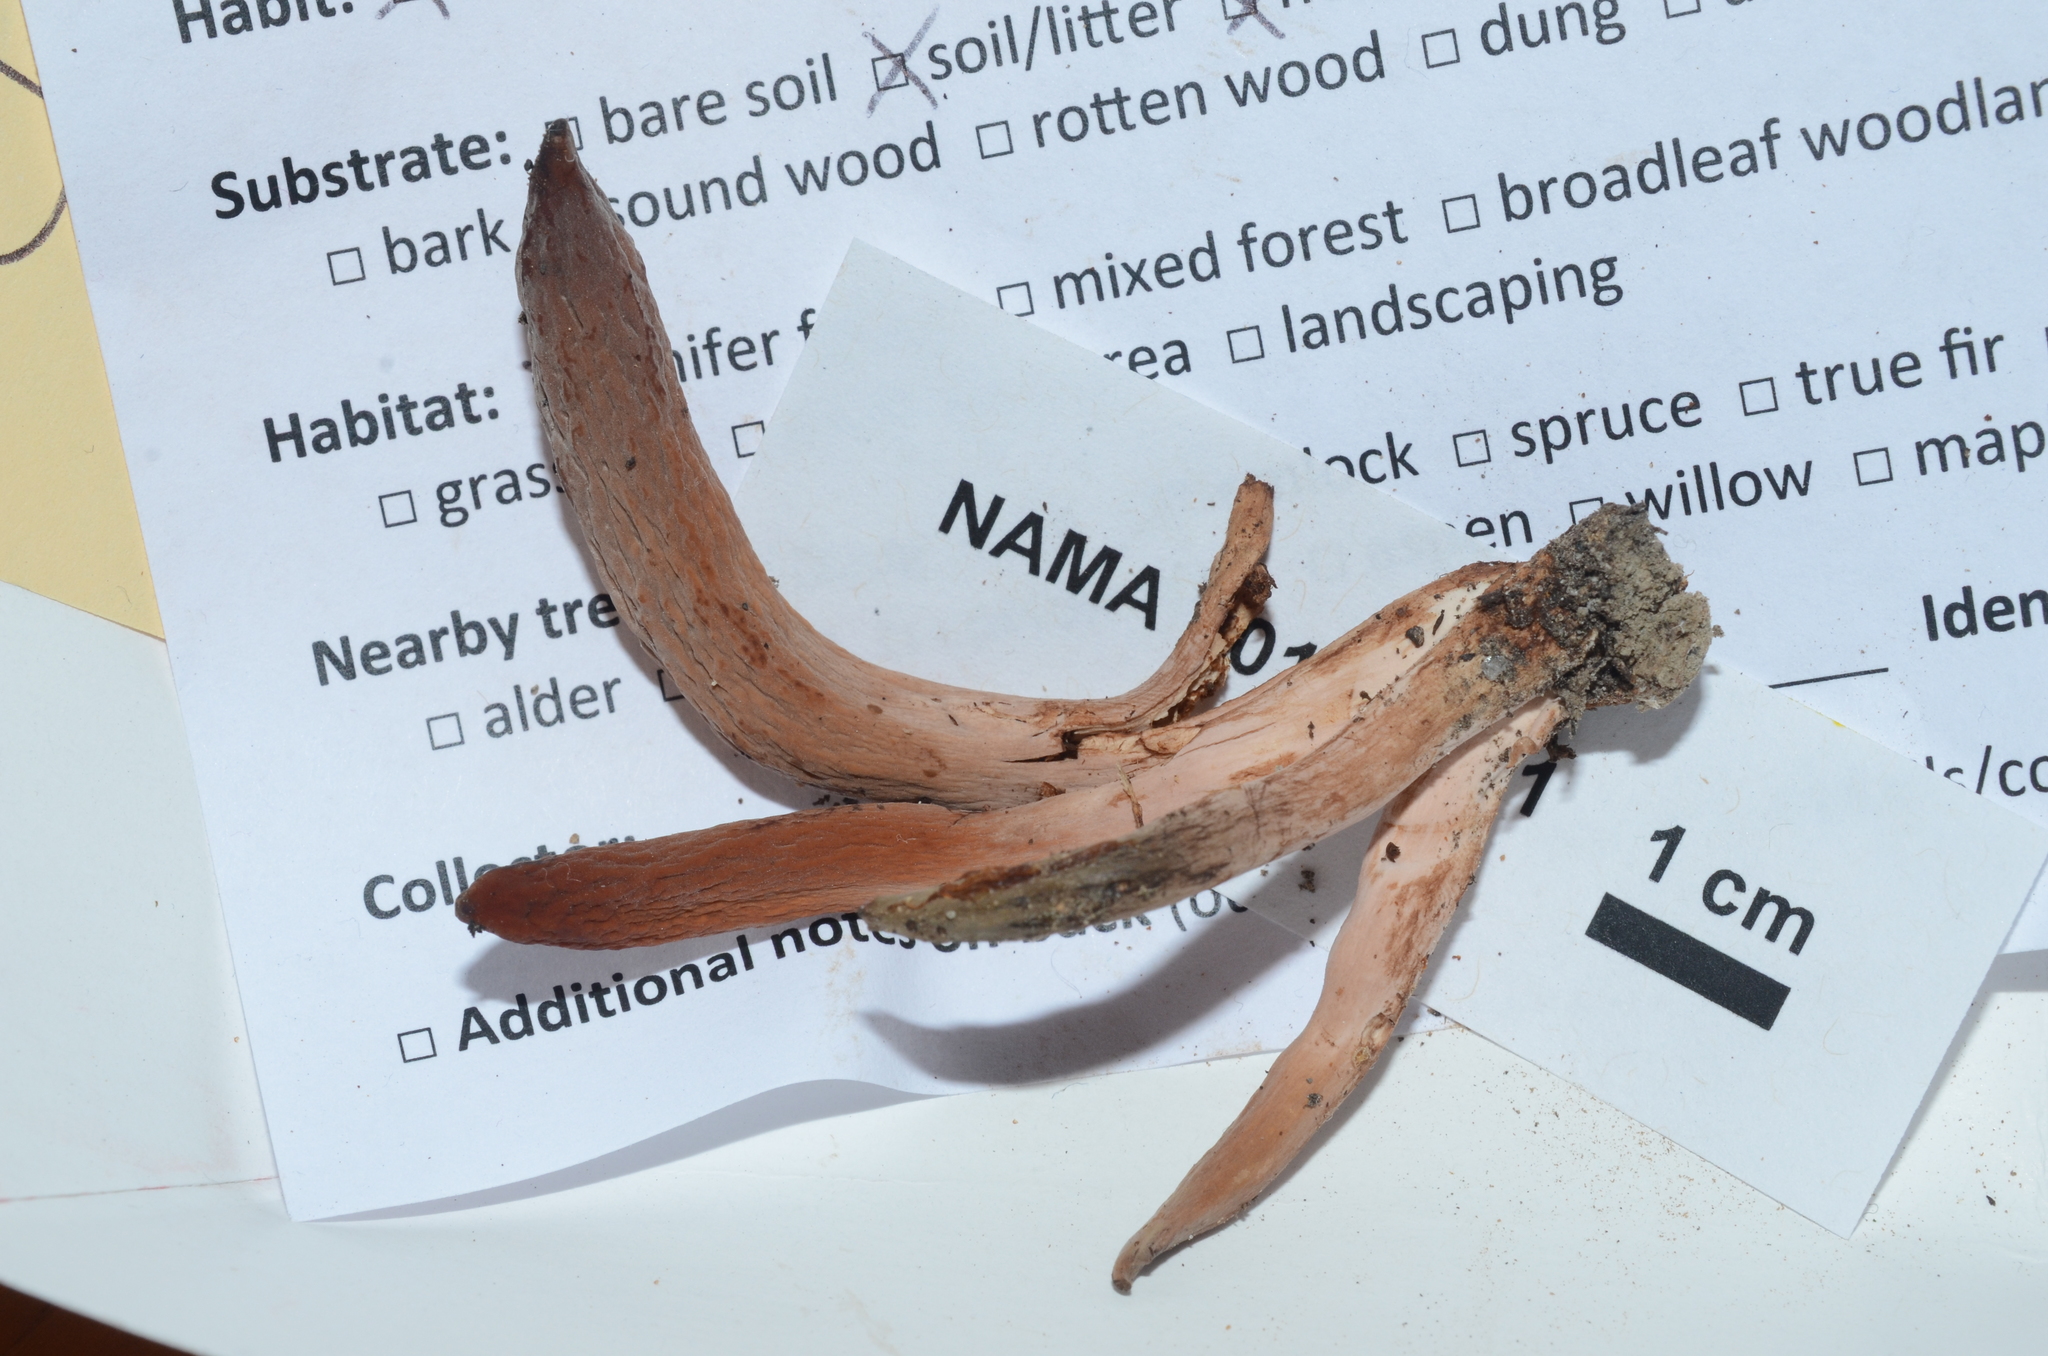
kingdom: Fungi
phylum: Basidiomycota
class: Agaricomycetes
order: Gomphales
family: Clavariadelphaceae
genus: Clavariadelphus
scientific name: Clavariadelphus occidentalis
